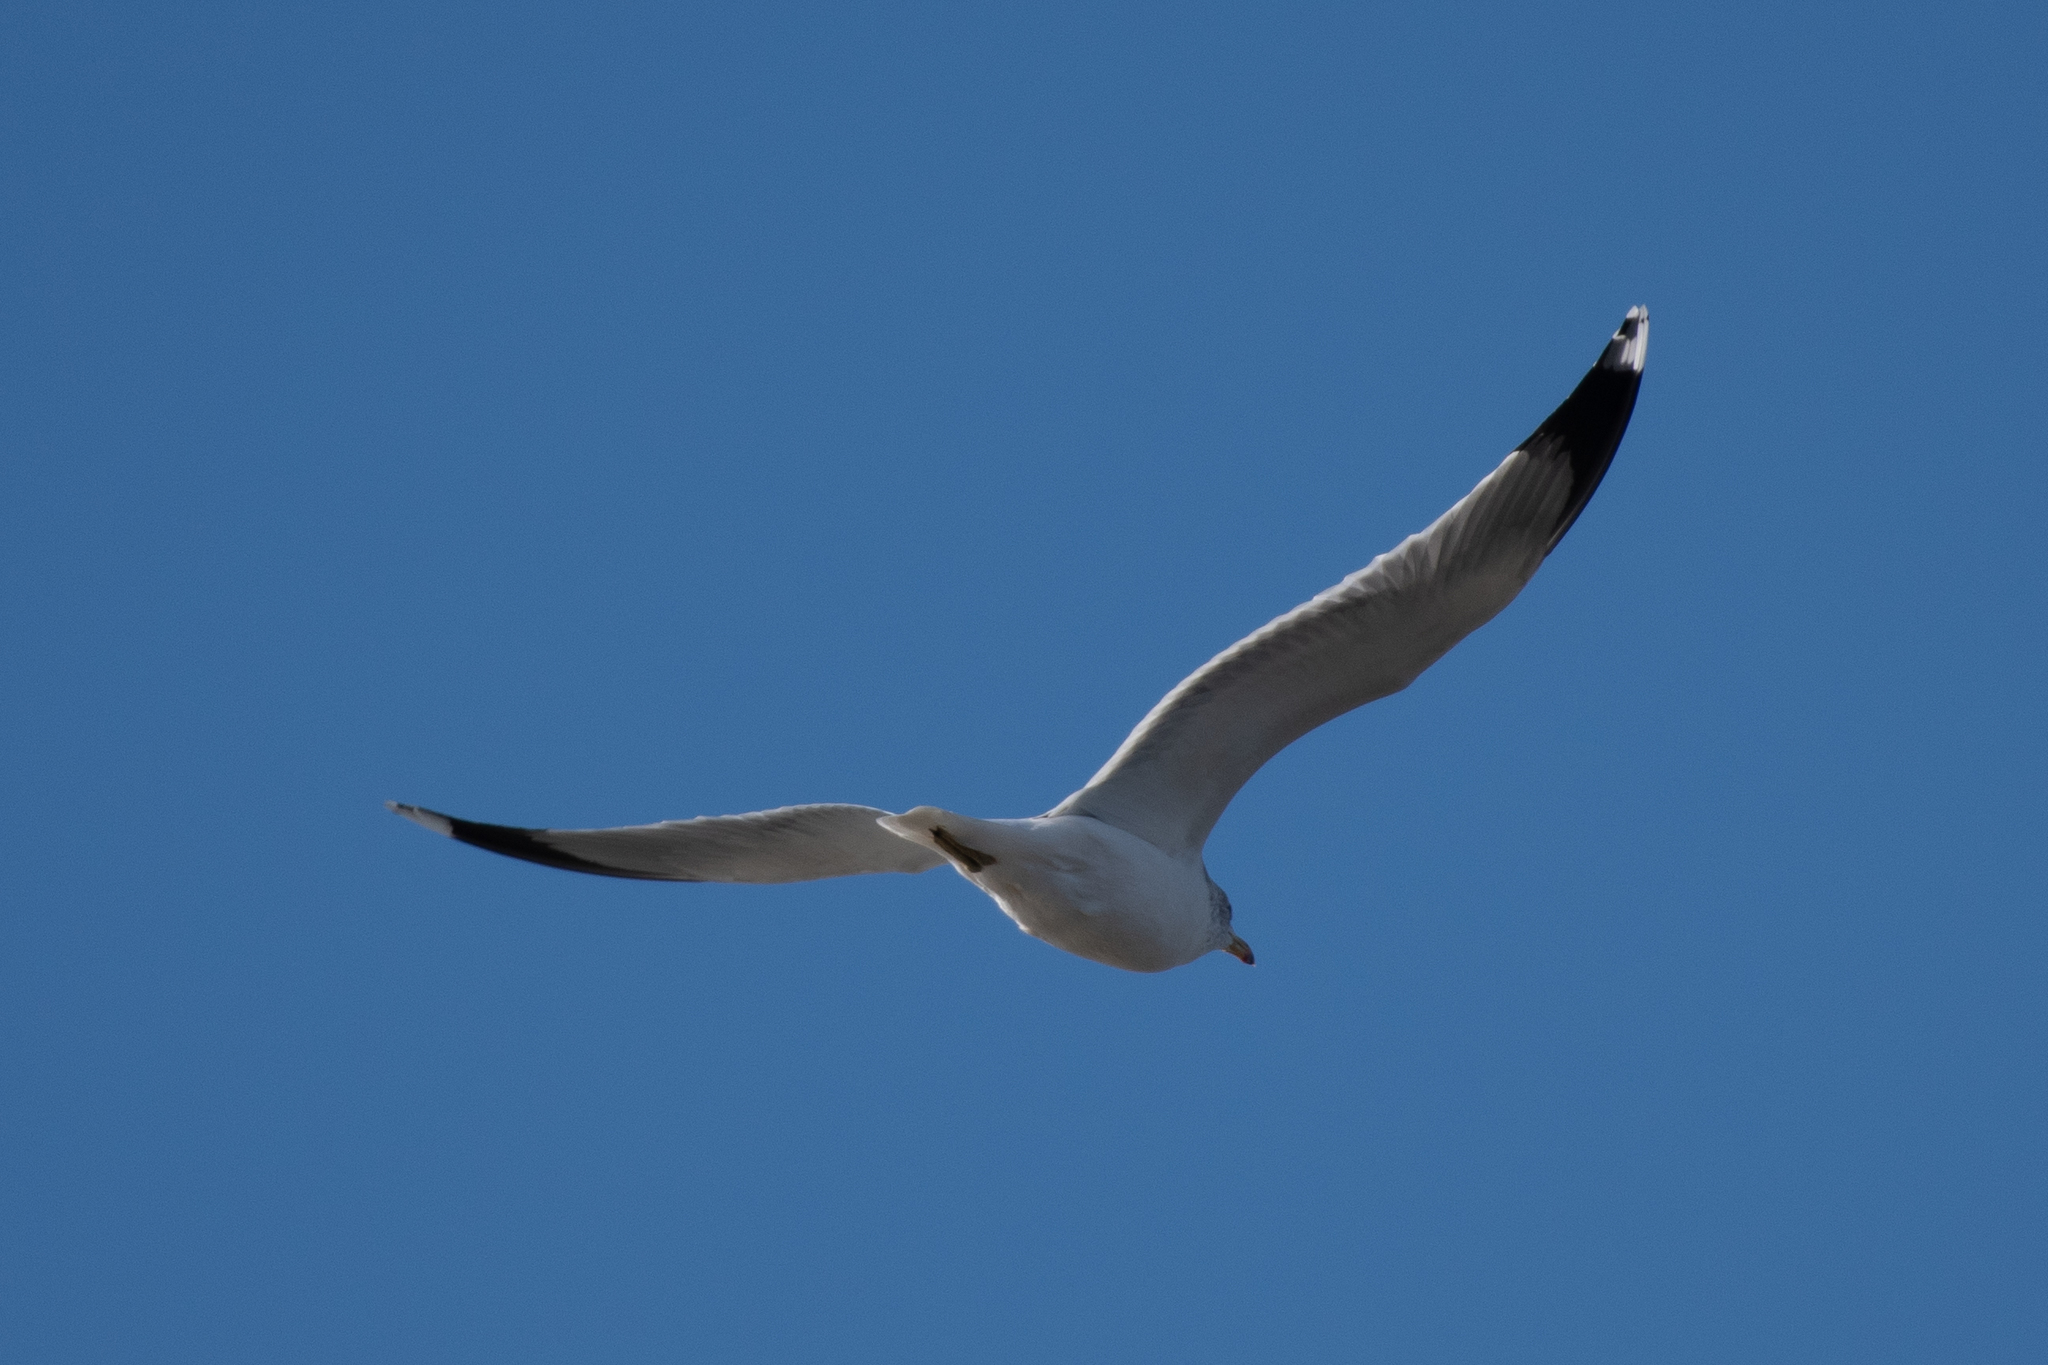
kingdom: Animalia
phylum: Chordata
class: Aves
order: Charadriiformes
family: Laridae
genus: Larus
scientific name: Larus californicus
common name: California gull
